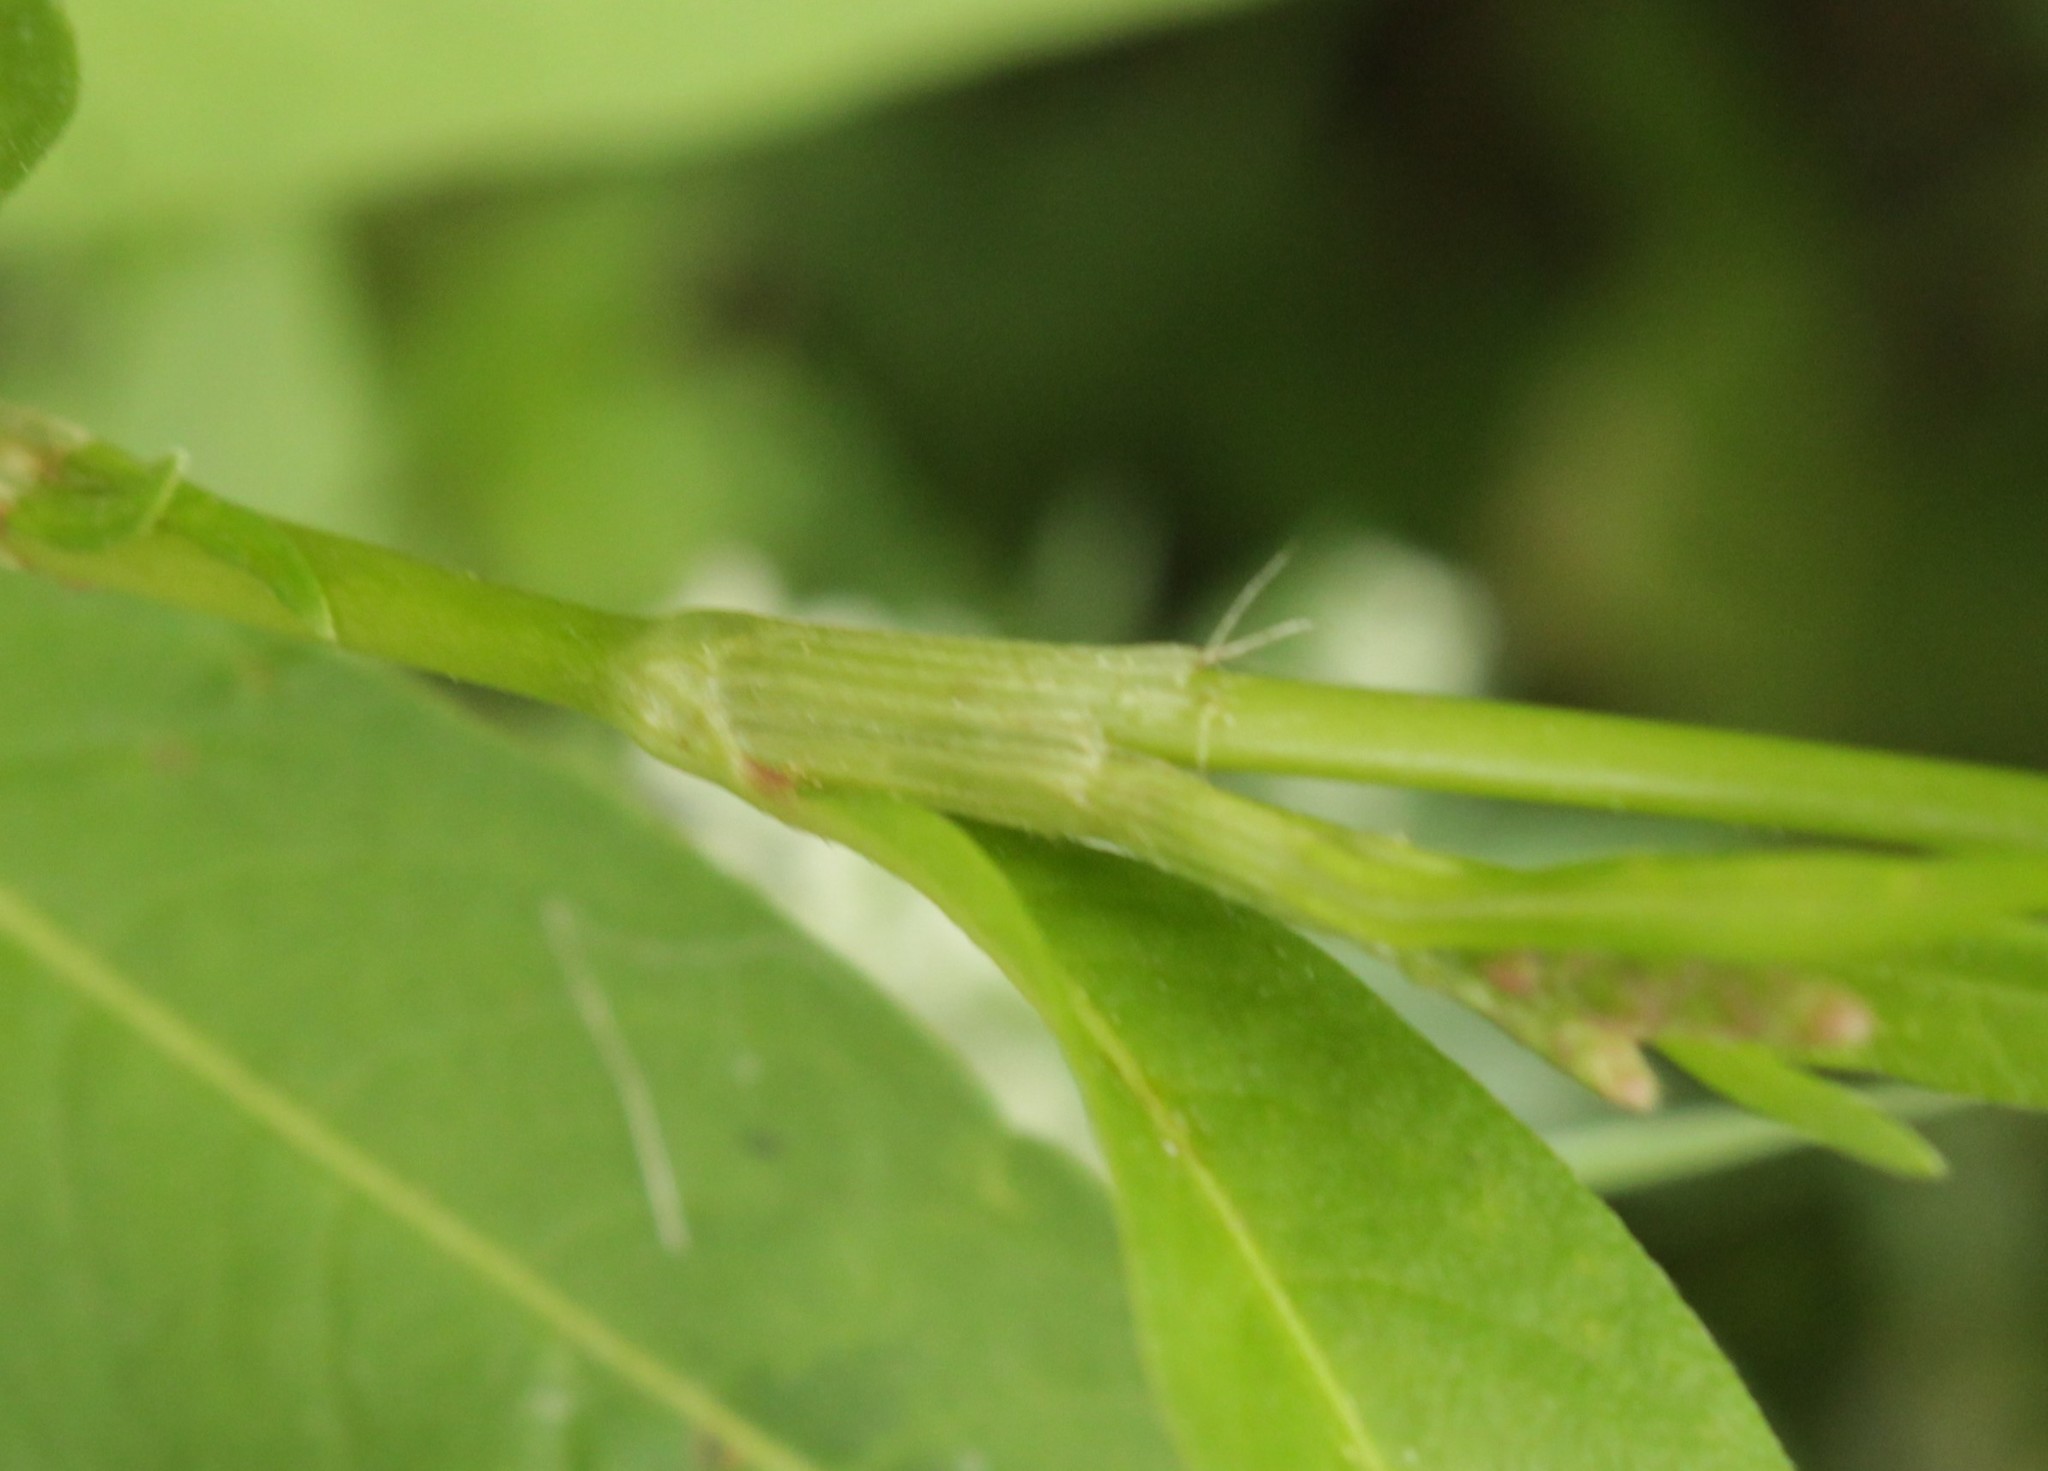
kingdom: Plantae
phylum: Tracheophyta
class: Magnoliopsida
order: Caryophyllales
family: Polygonaceae
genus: Persicaria
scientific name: Persicaria maculosa
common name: Redshank
